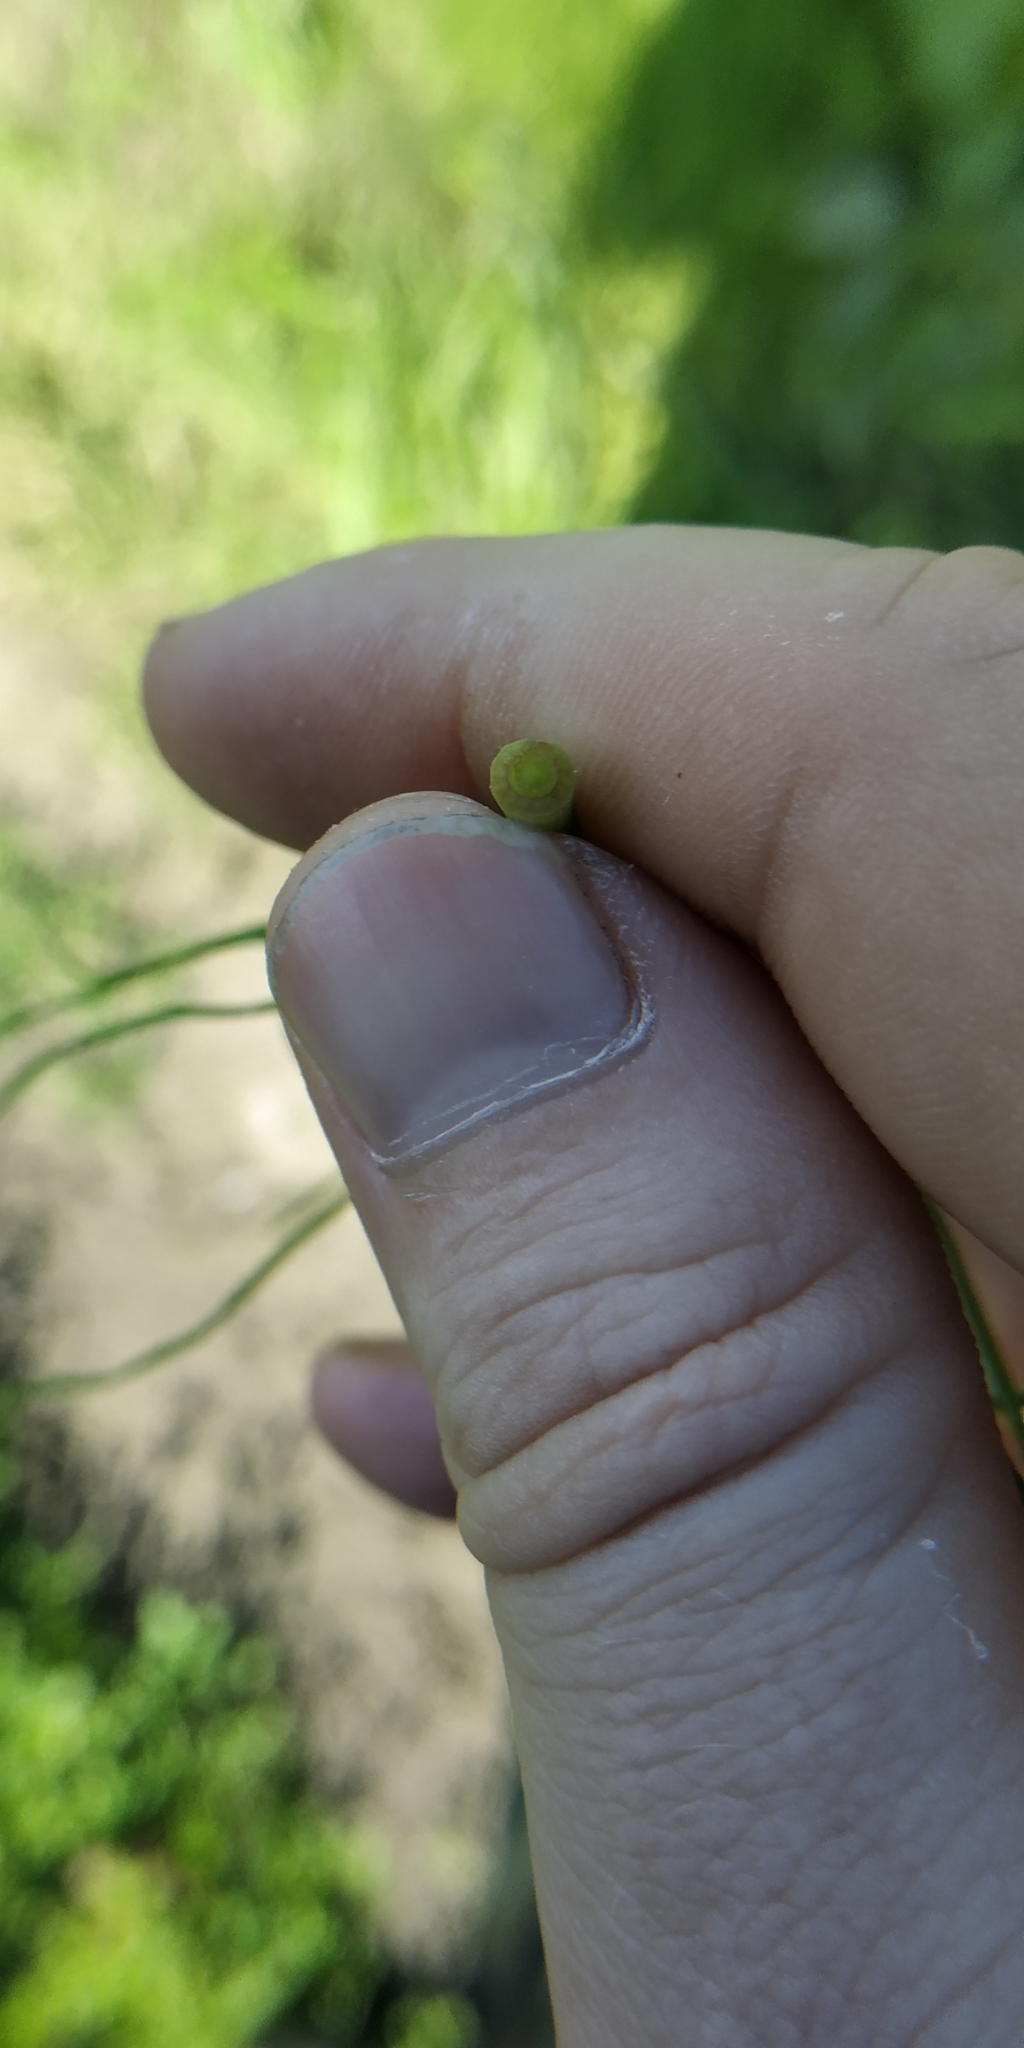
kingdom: Plantae
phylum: Tracheophyta
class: Polypodiopsida
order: Equisetales
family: Equisetaceae
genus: Equisetum
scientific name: Equisetum arvense
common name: Field horsetail
